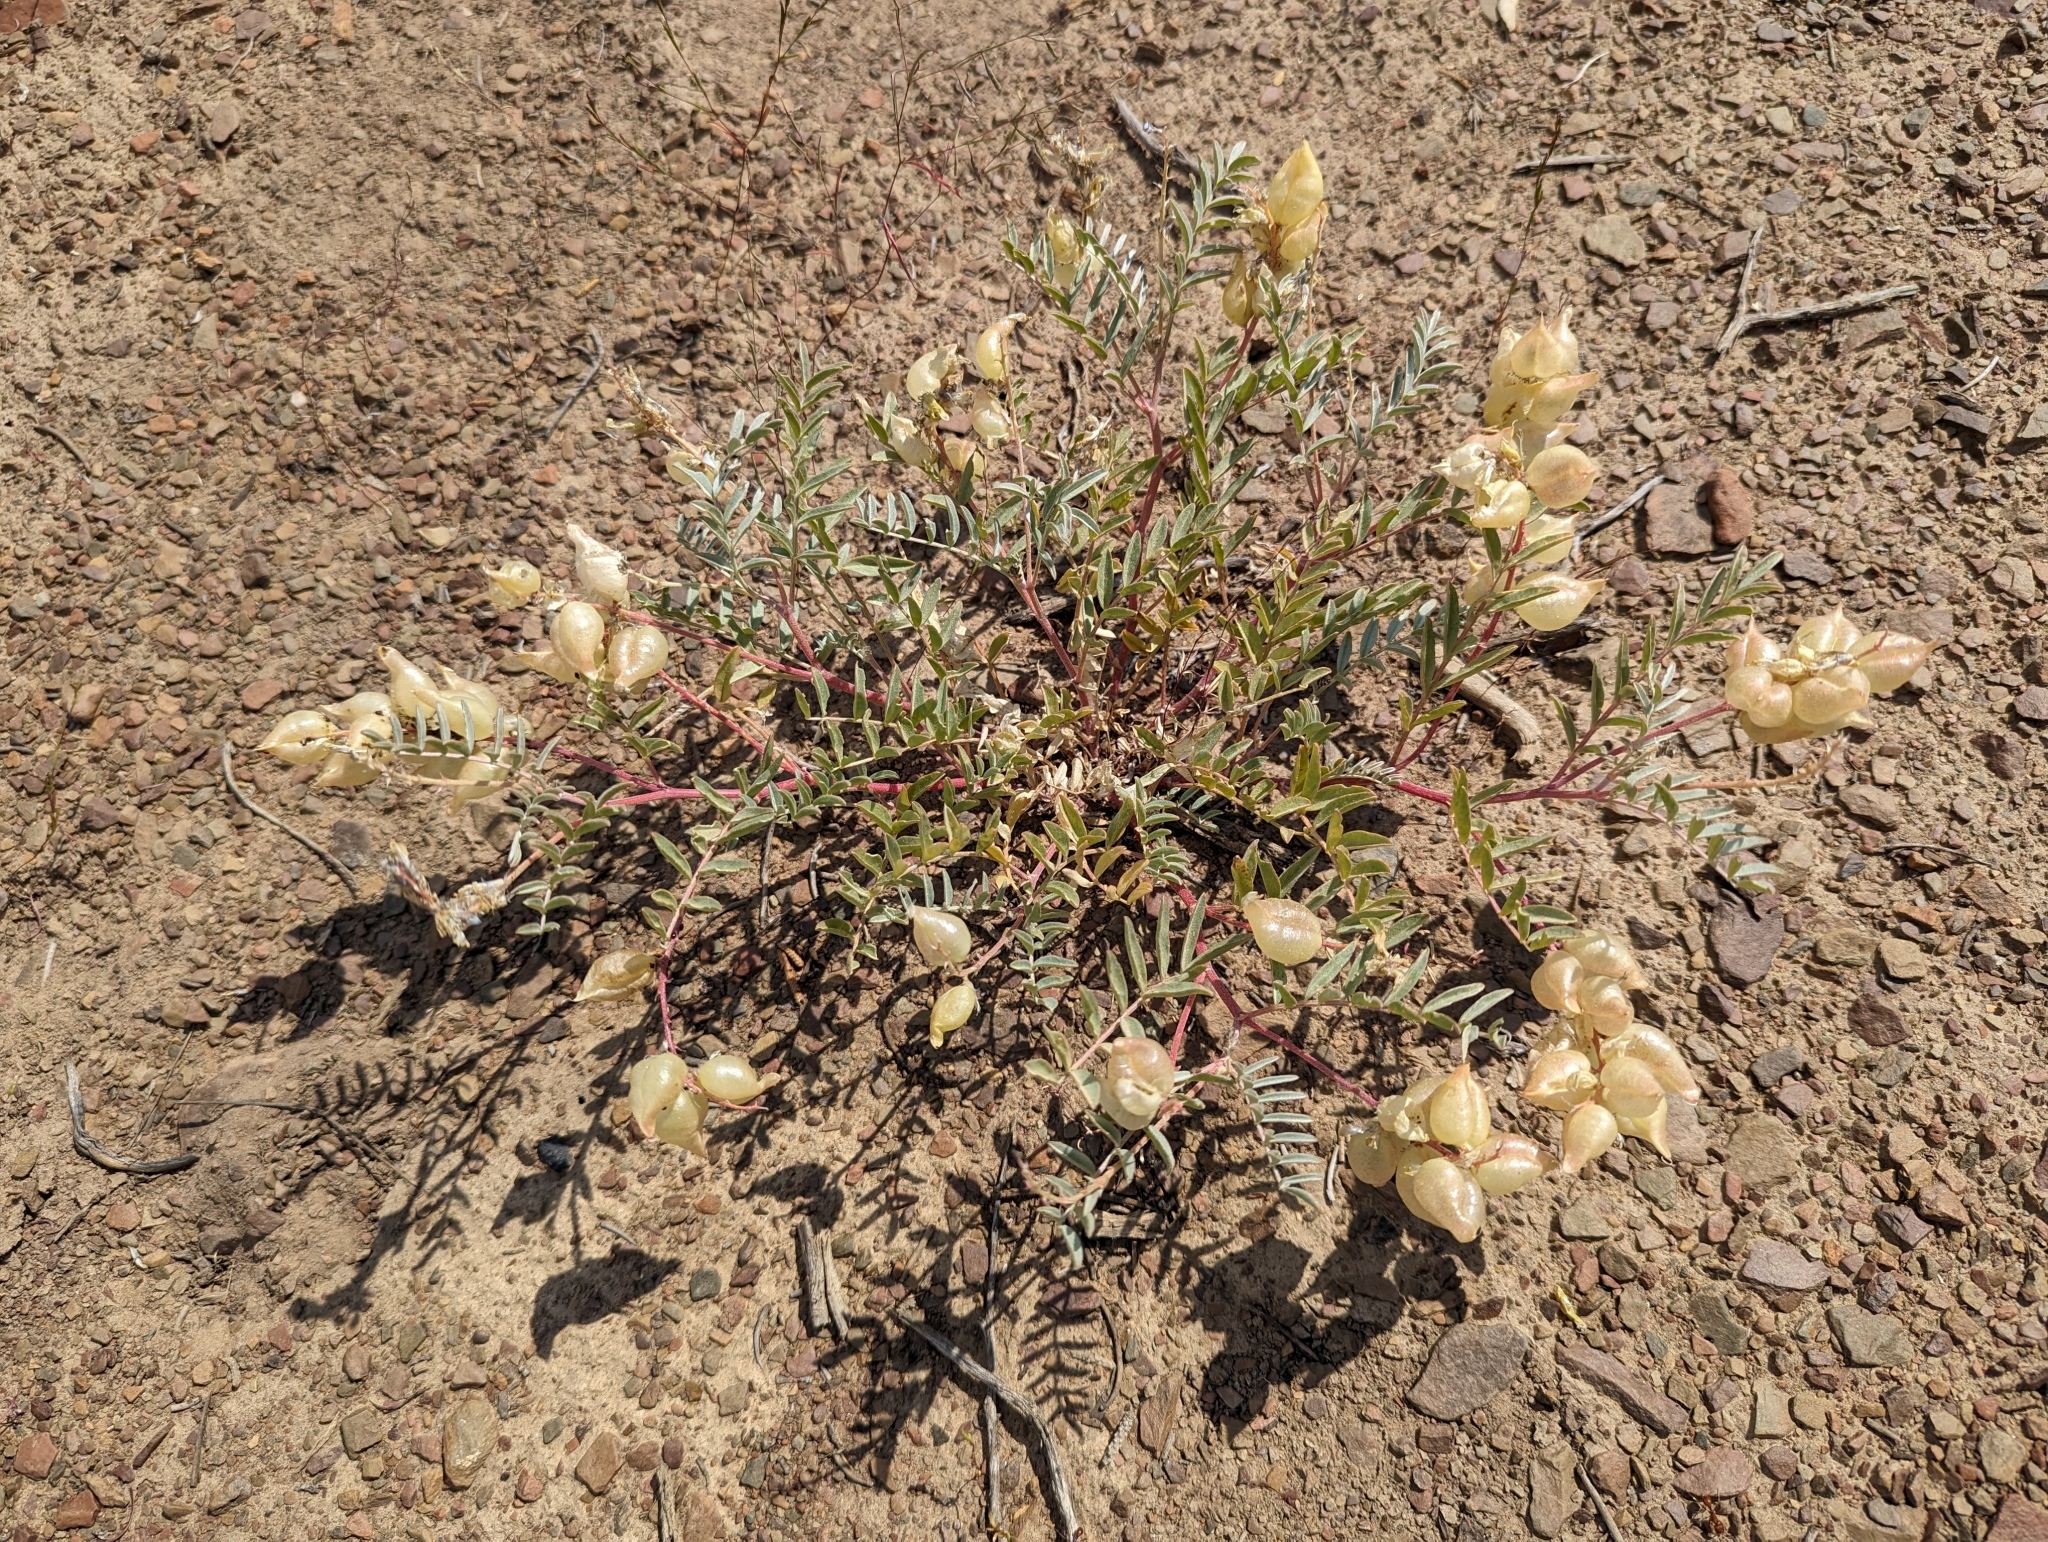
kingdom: Plantae
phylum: Tracheophyta
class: Magnoliopsida
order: Fabales
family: Fabaceae
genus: Astragalus
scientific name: Astragalus lentiginosus
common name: Freckled milkvetch
